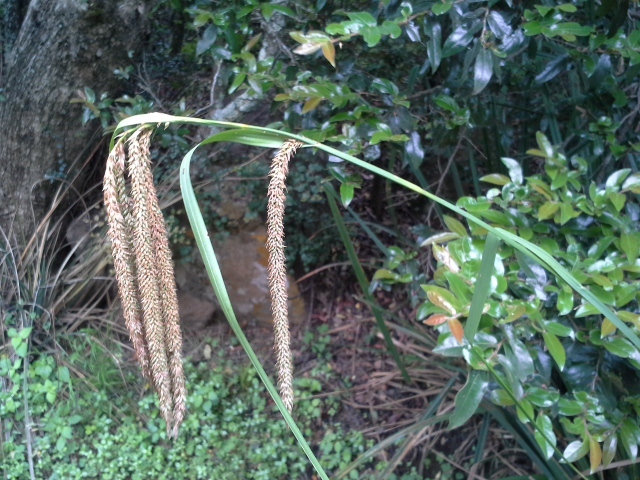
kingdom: Plantae
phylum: Tracheophyta
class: Liliopsida
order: Poales
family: Cyperaceae
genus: Carex
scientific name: Carex bequaertii
